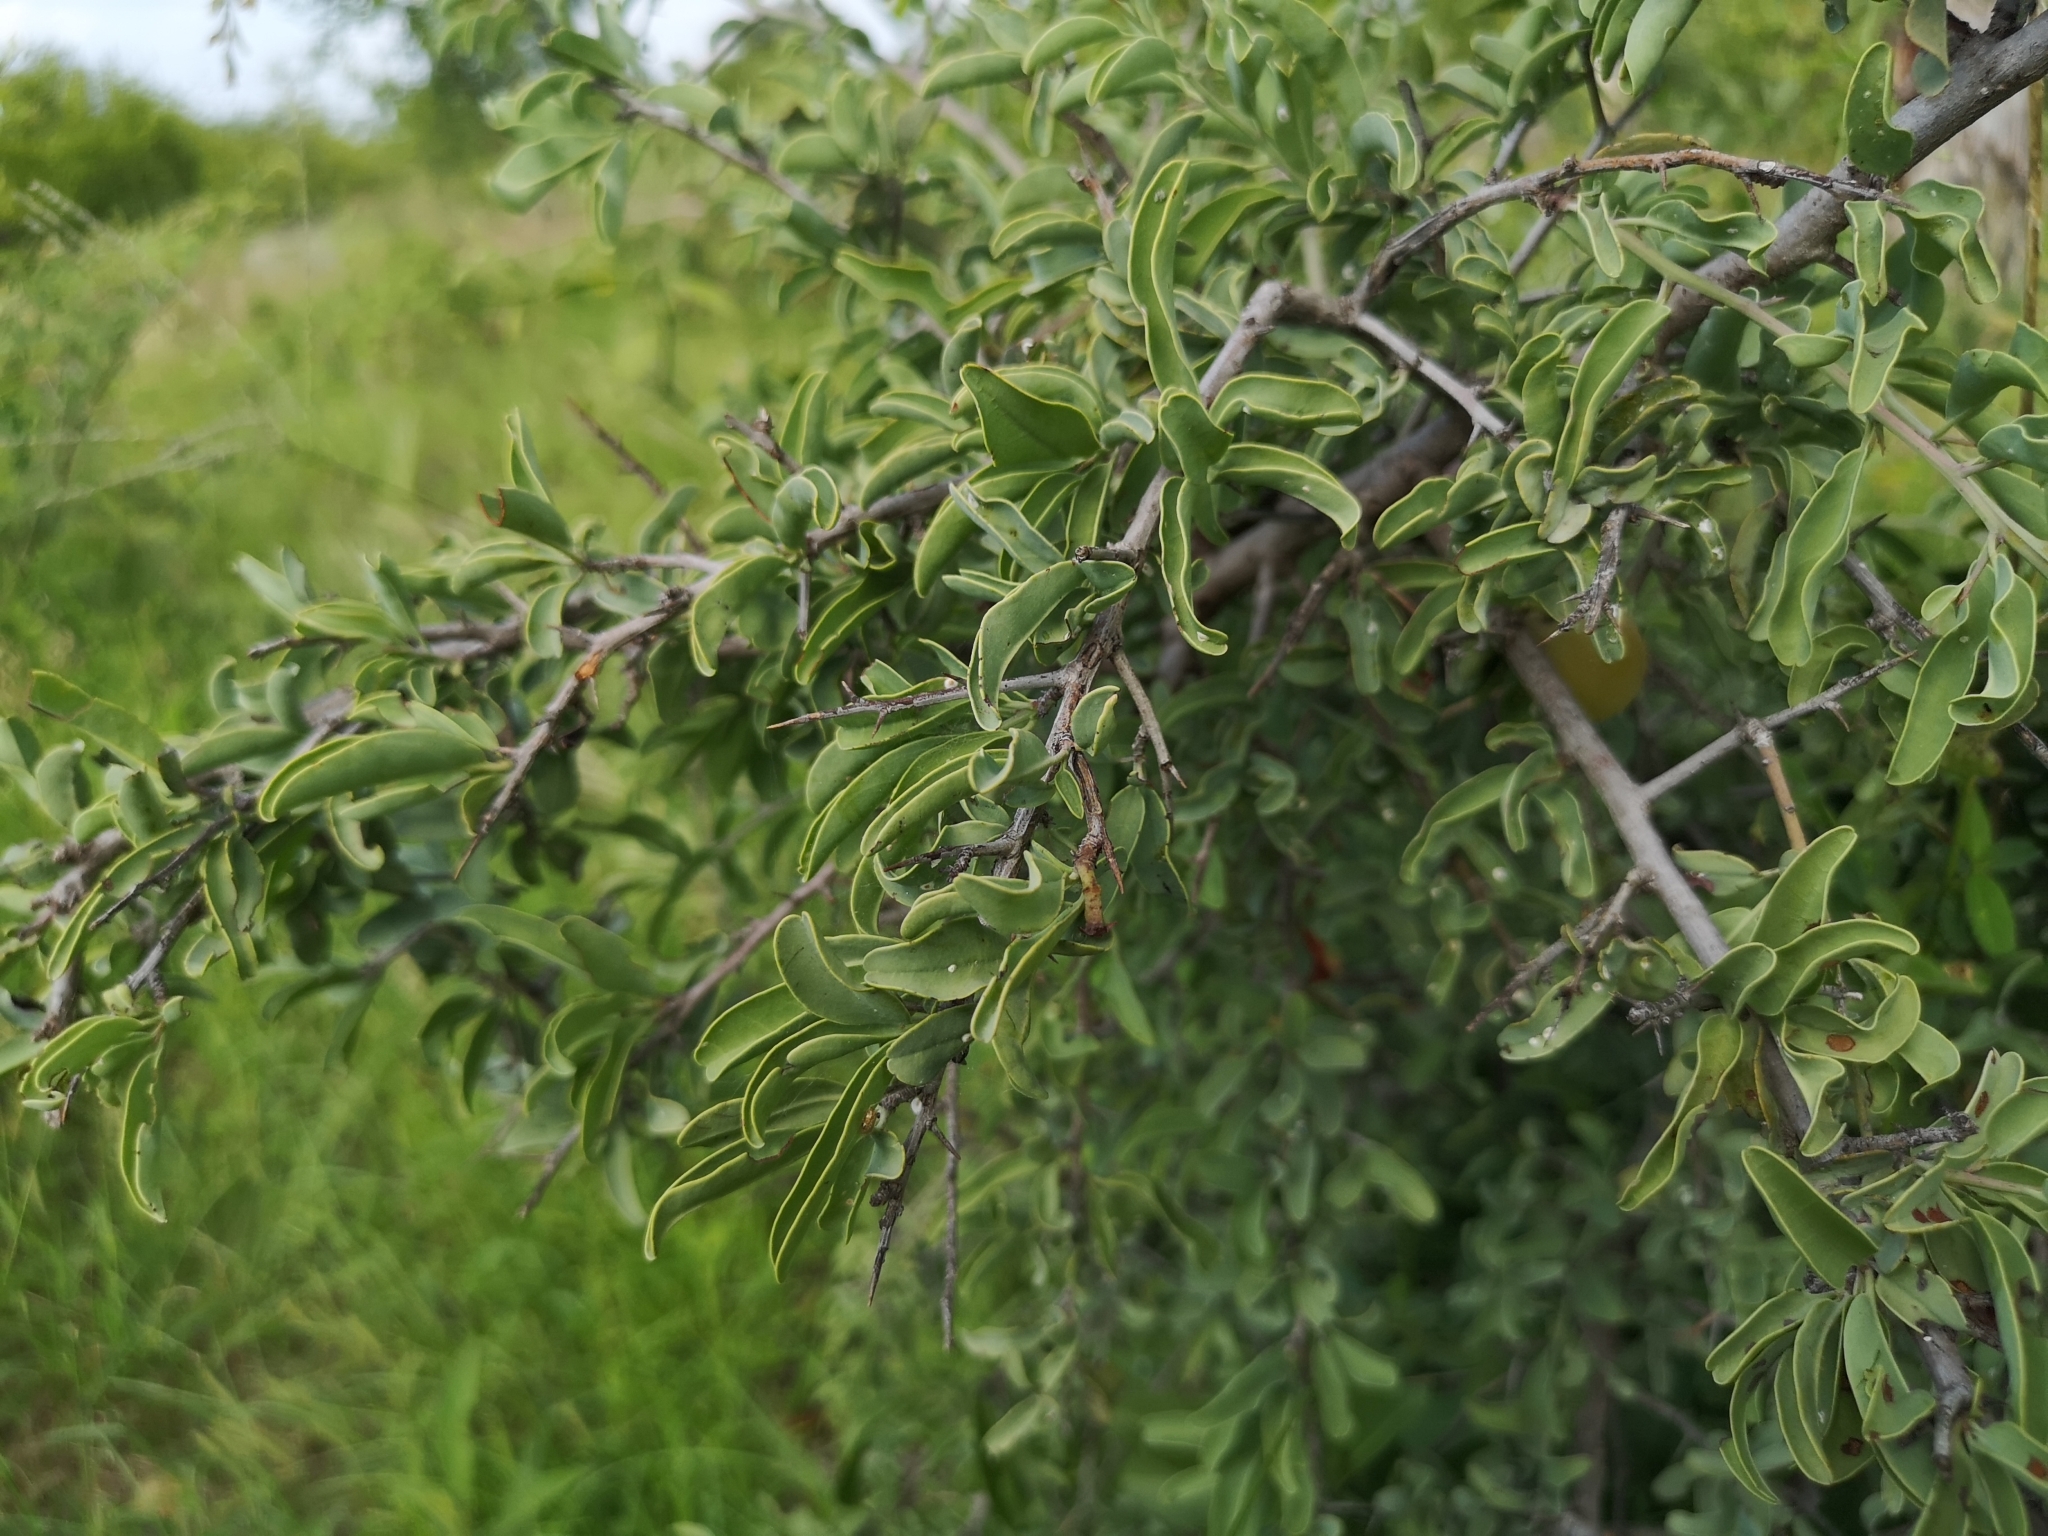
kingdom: Plantae
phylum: Tracheophyta
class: Magnoliopsida
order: Santalales
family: Ximeniaceae
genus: Ximenia
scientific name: Ximenia americana
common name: Tallowwood
